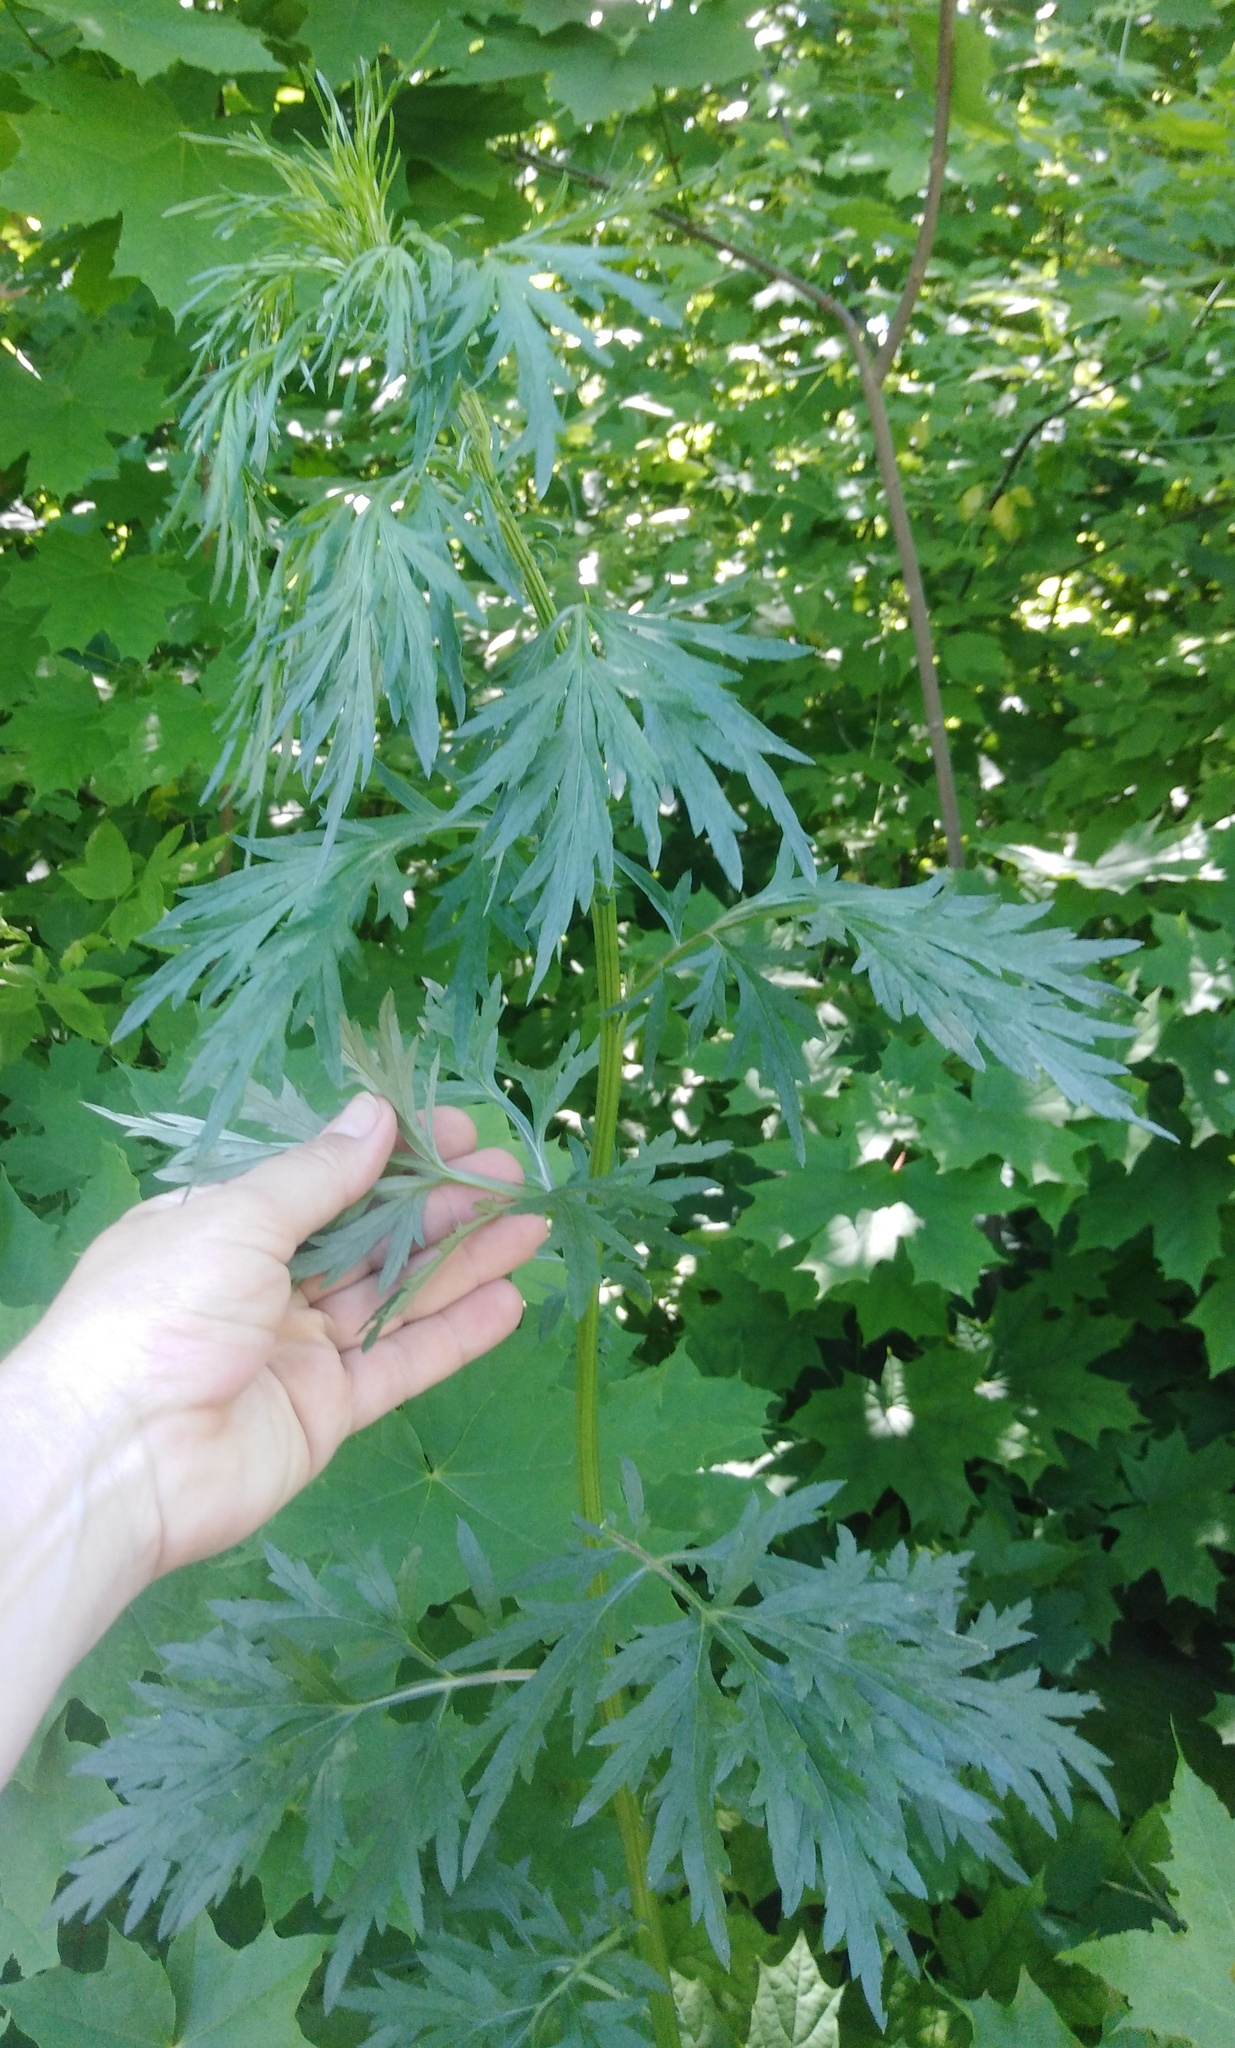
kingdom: Plantae
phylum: Tracheophyta
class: Magnoliopsida
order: Asterales
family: Asteraceae
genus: Artemisia
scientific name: Artemisia vulgaris
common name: Mugwort
